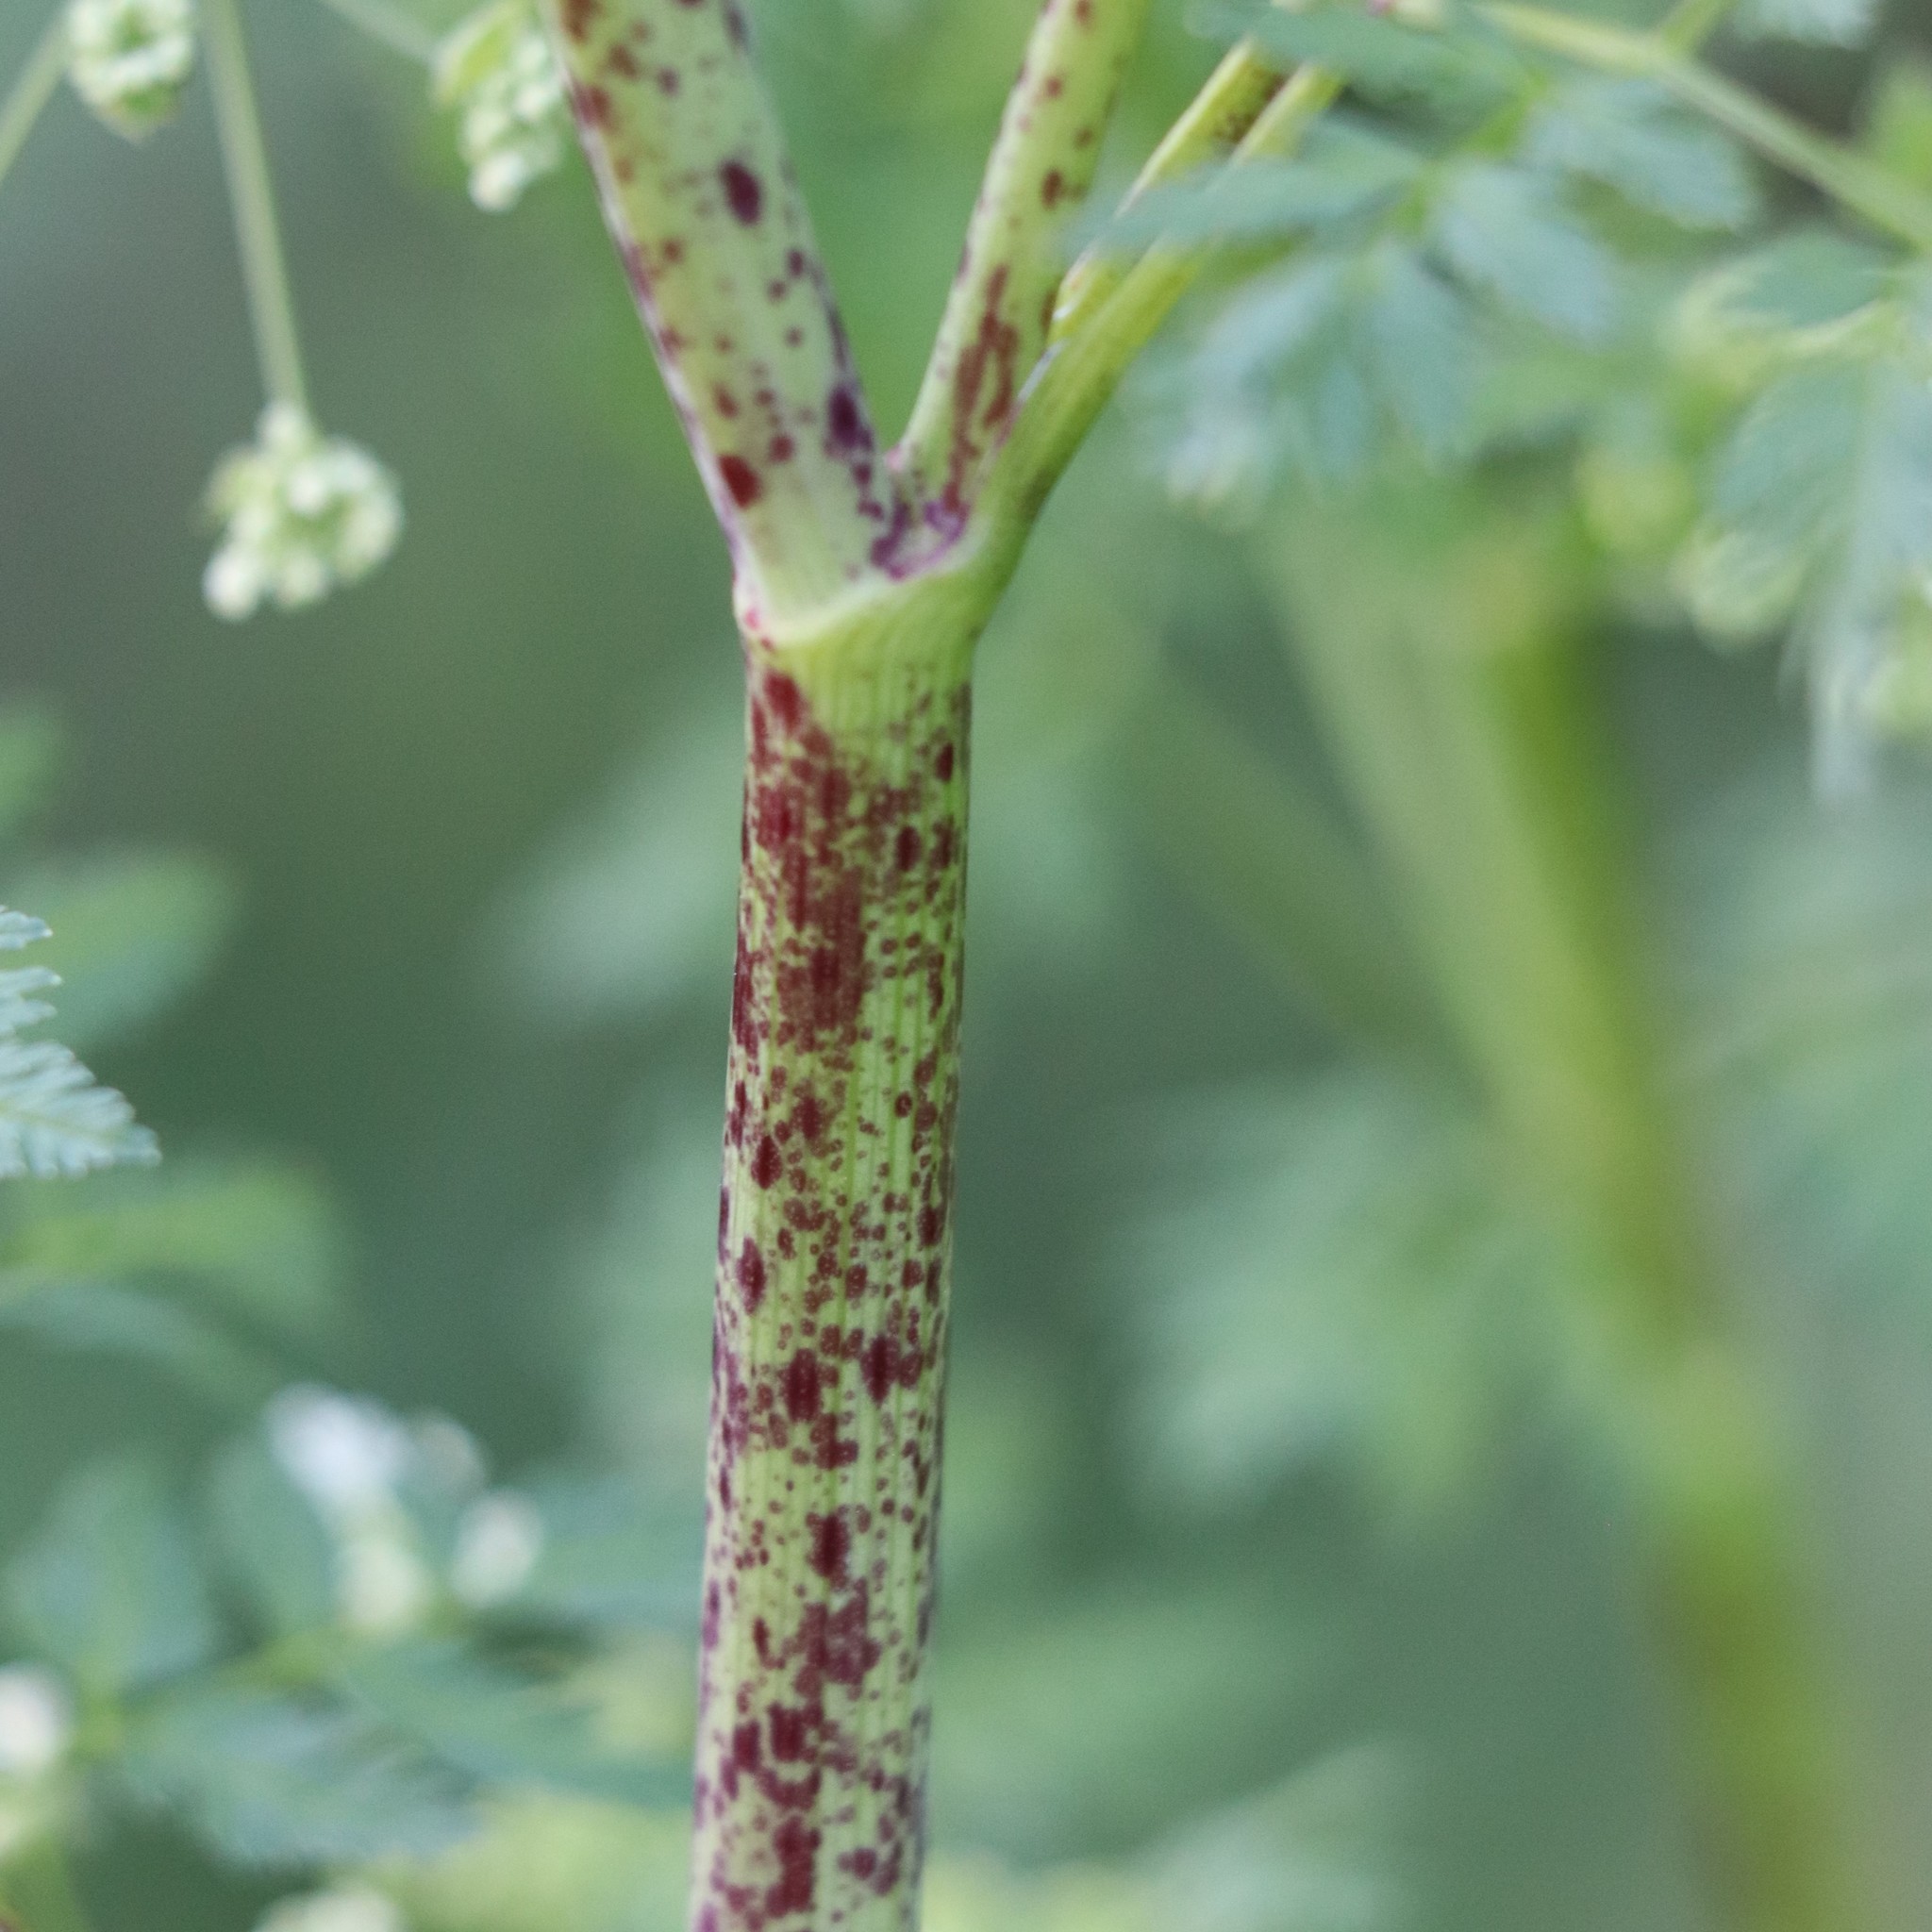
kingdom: Plantae
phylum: Tracheophyta
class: Magnoliopsida
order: Apiales
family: Apiaceae
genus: Conium
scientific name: Conium maculatum
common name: Hemlock
